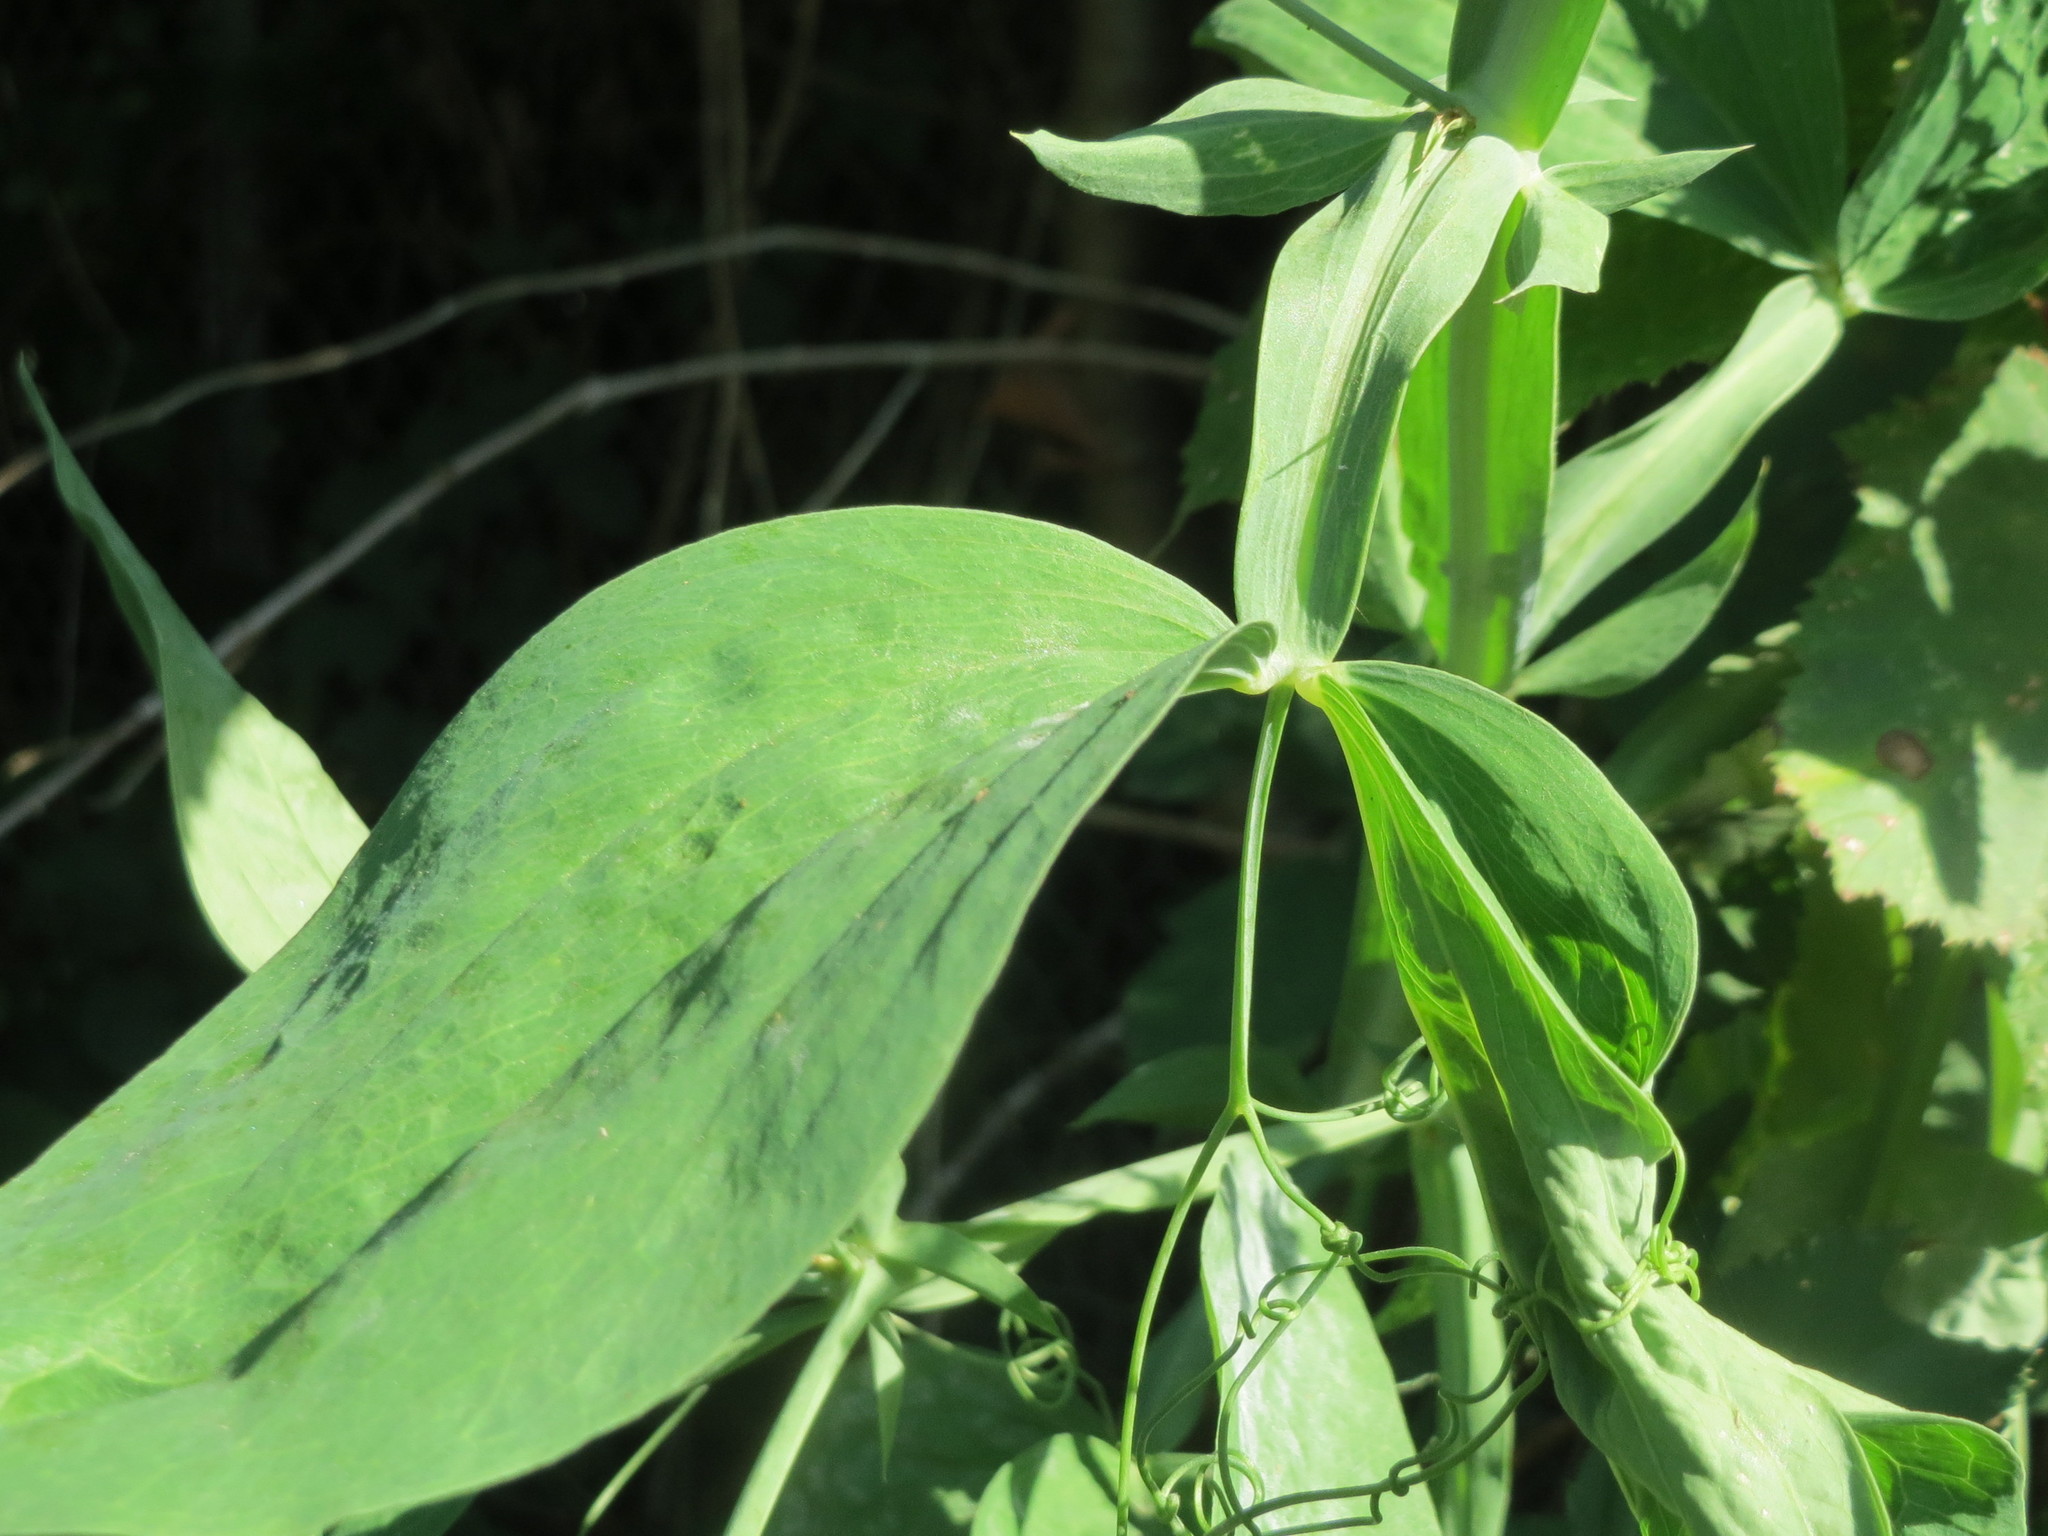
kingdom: Plantae
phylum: Tracheophyta
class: Magnoliopsida
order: Fabales
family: Fabaceae
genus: Lathyrus
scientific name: Lathyrus latifolius
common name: Perennial pea
